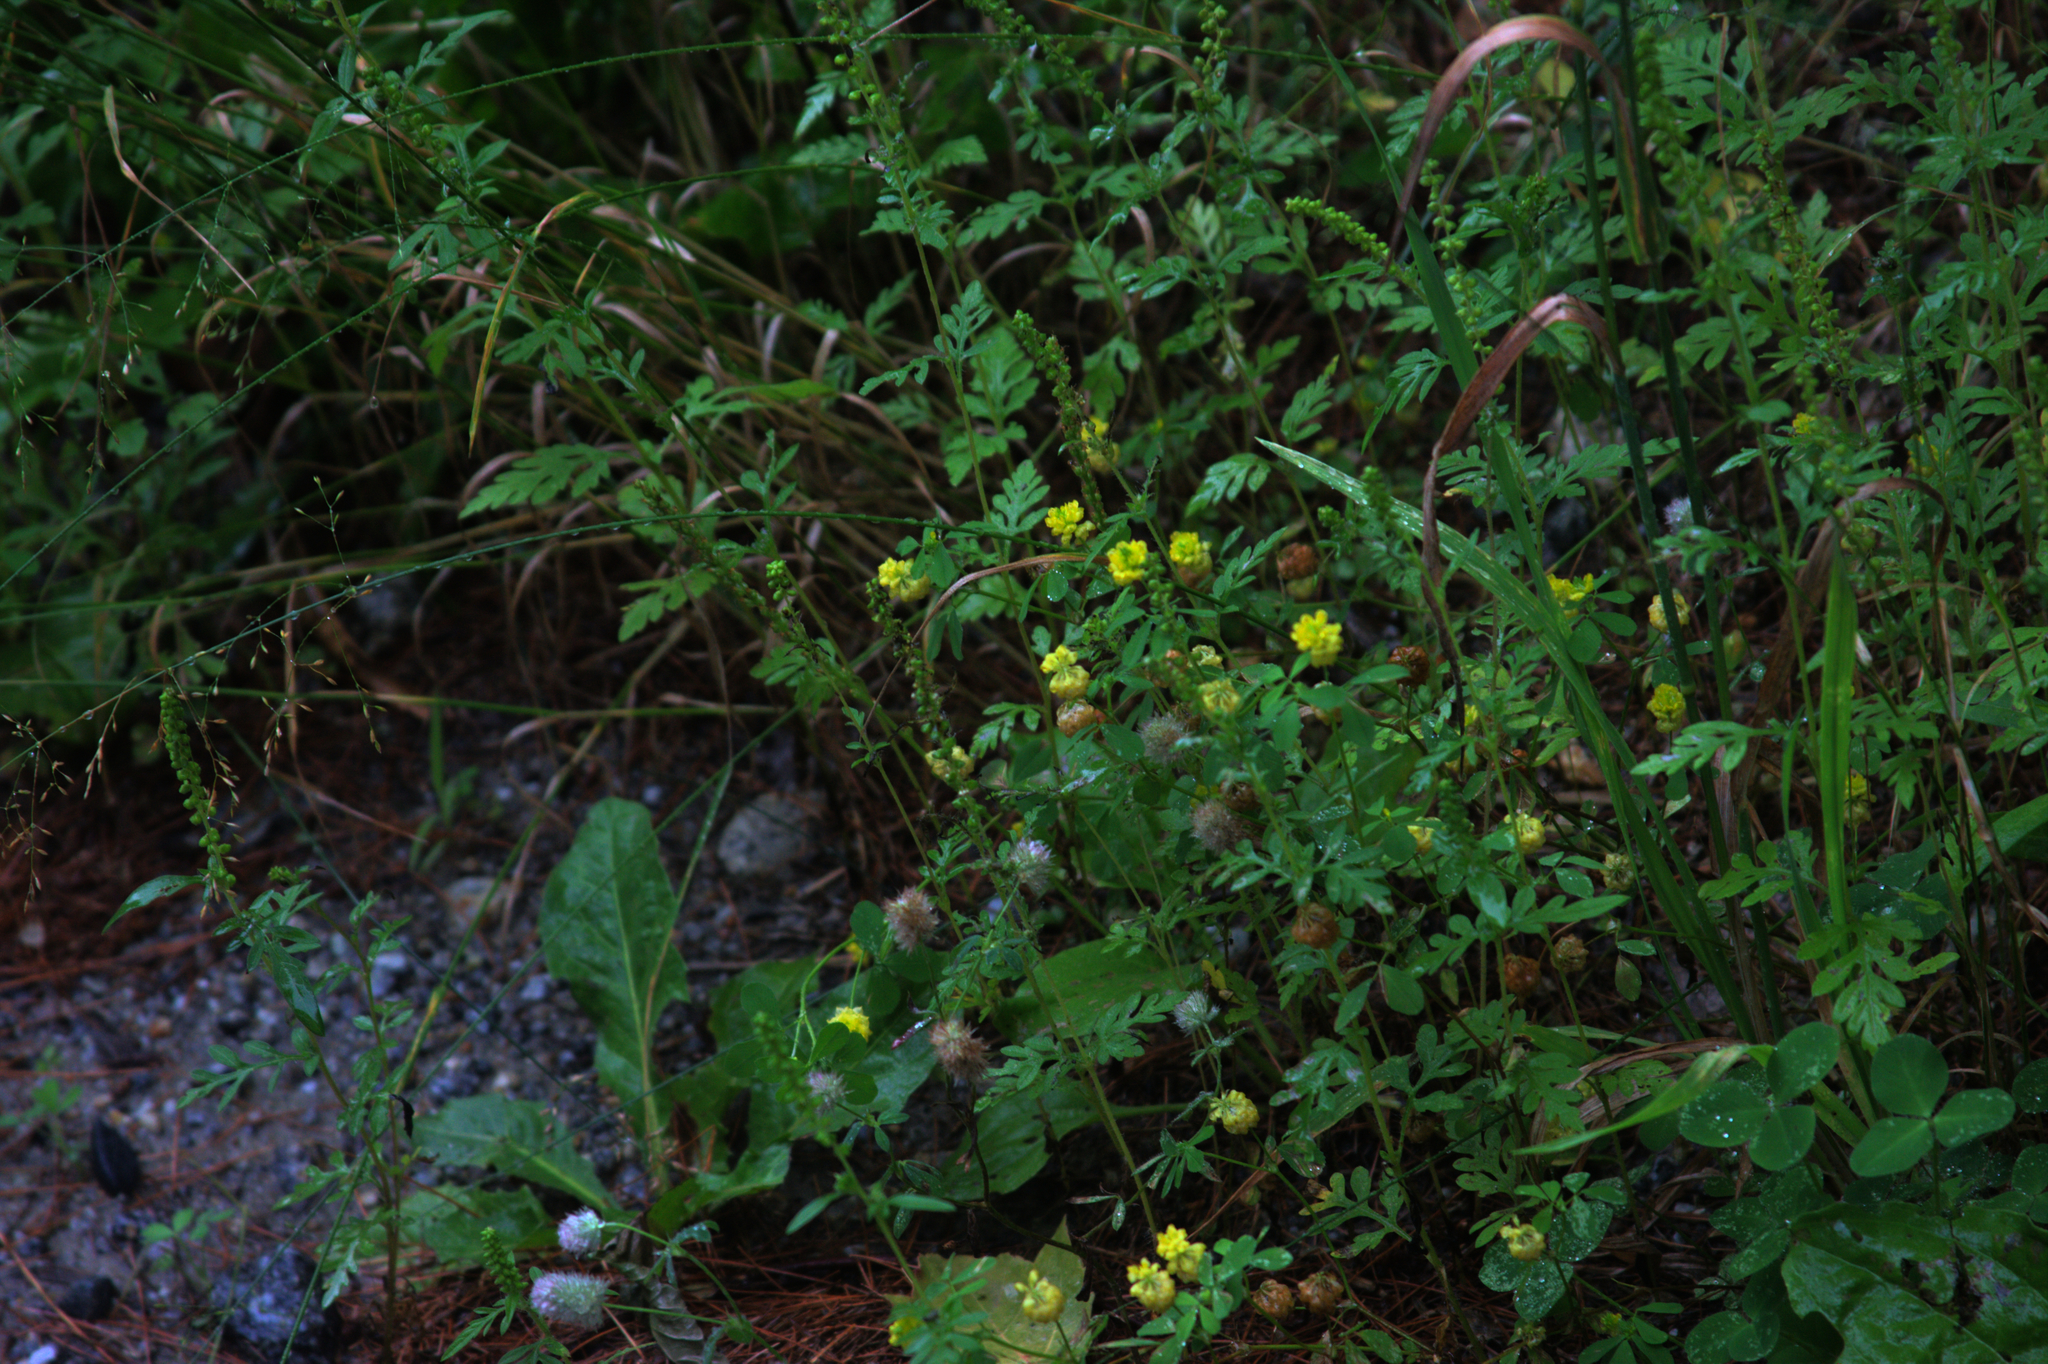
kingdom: Plantae
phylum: Tracheophyta
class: Magnoliopsida
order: Fabales
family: Fabaceae
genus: Trifolium
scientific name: Trifolium campestre
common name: Field clover
